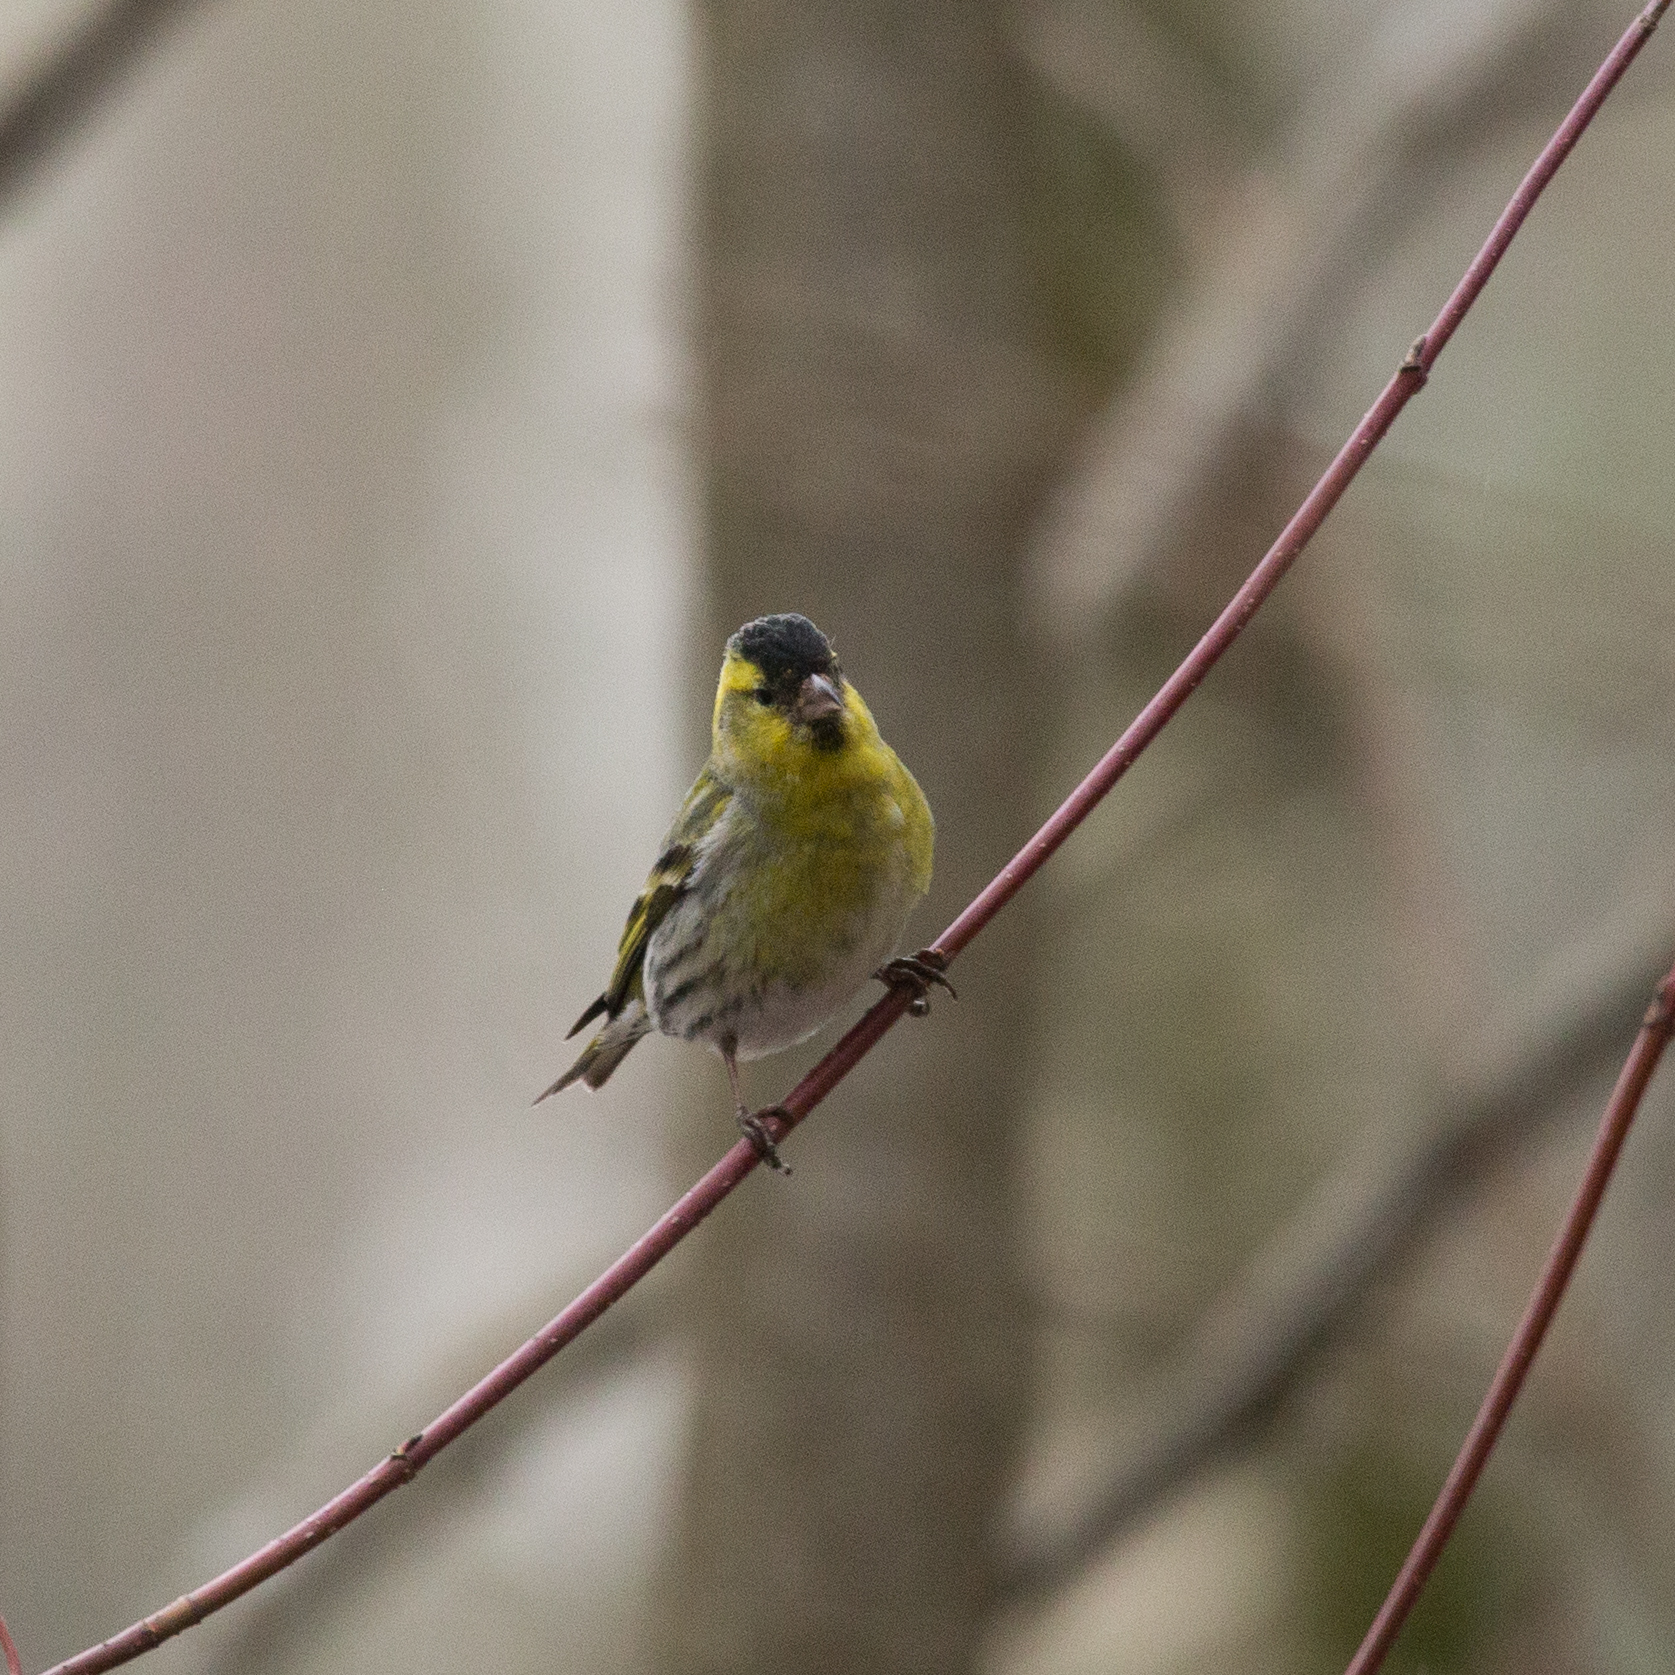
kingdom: Animalia
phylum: Chordata
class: Aves
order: Passeriformes
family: Fringillidae
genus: Spinus
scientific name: Spinus spinus
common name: Eurasian siskin
